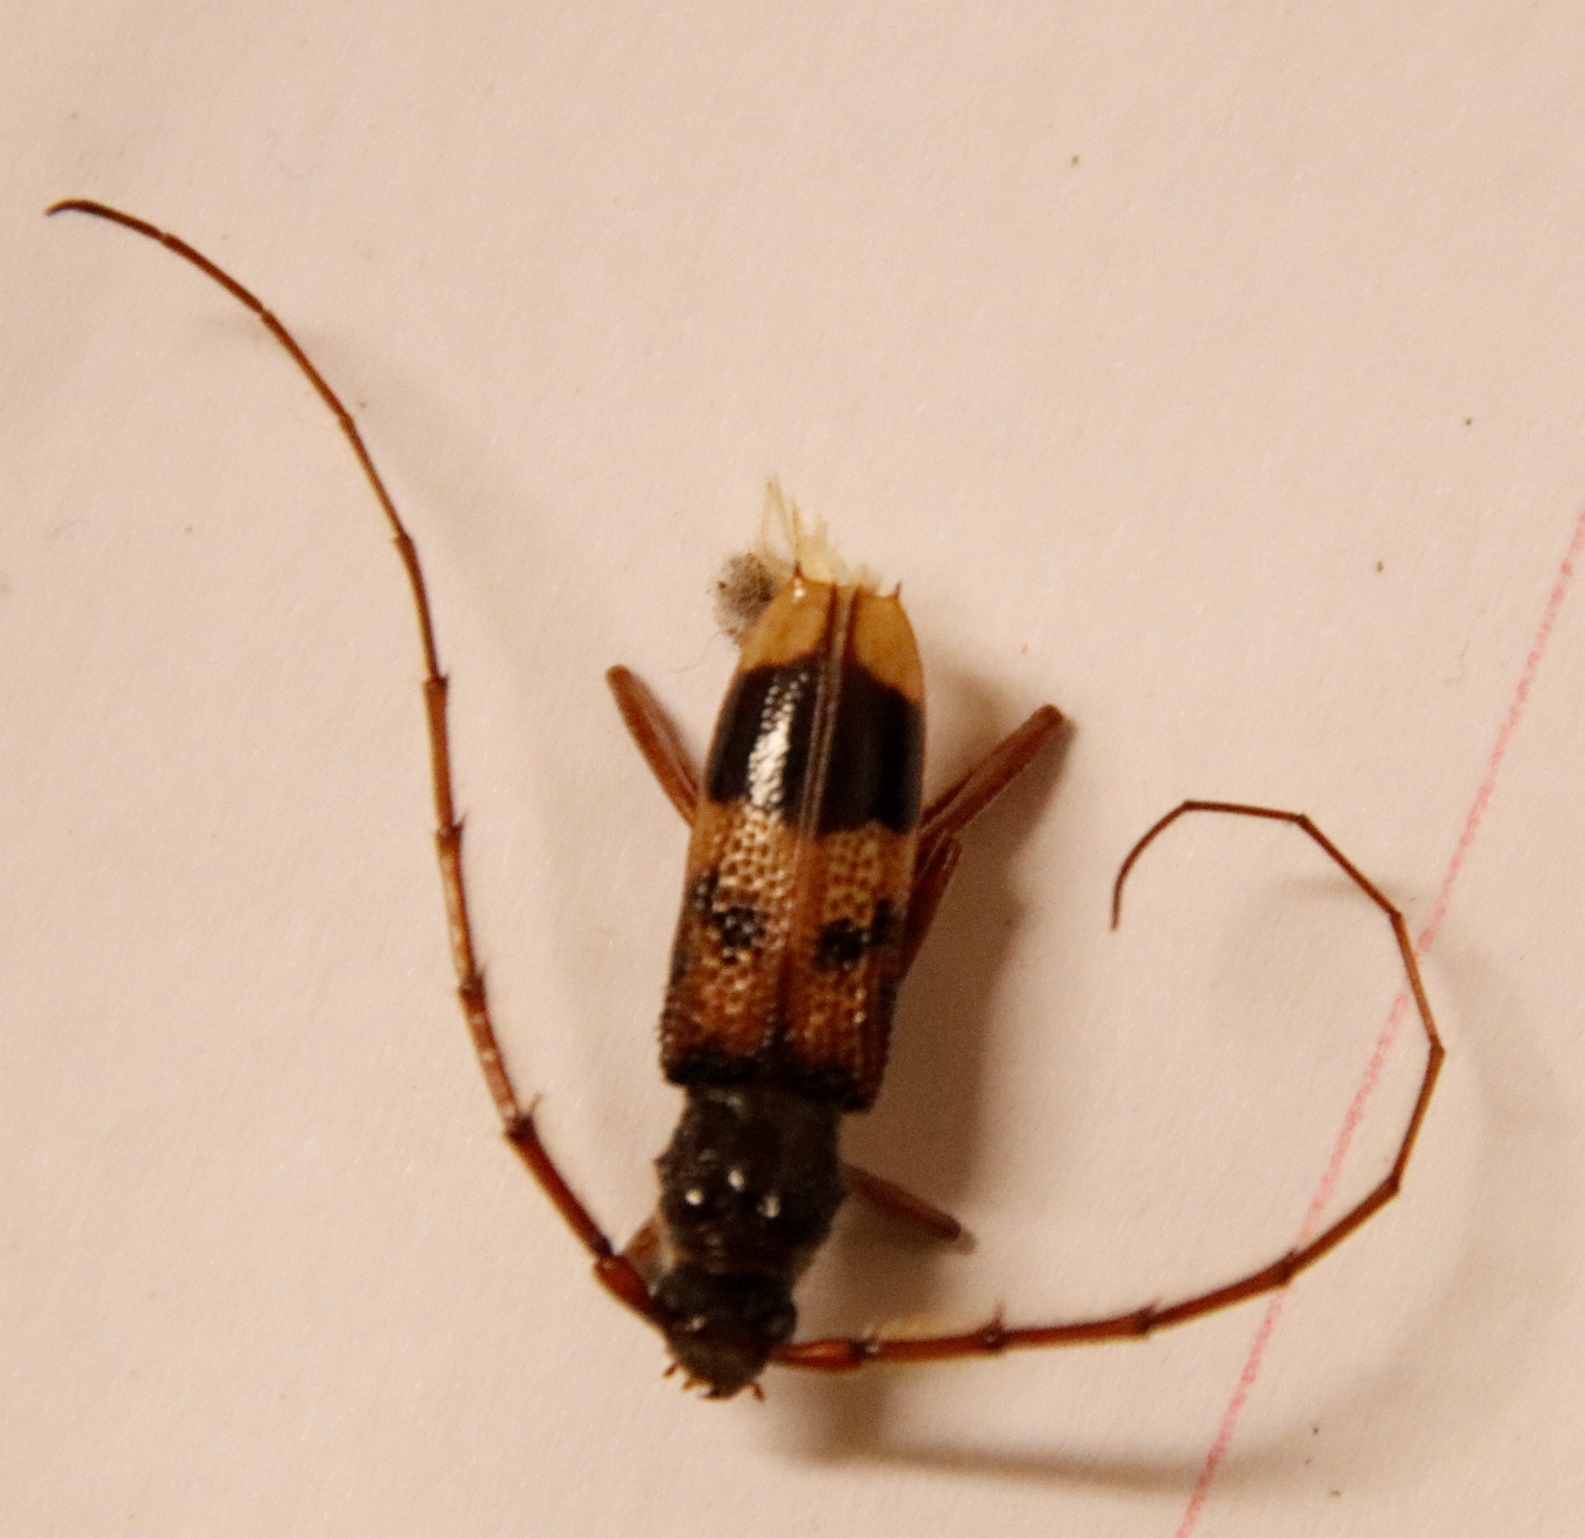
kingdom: Animalia
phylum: Arthropoda
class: Insecta
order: Coleoptera
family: Cerambycidae
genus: Phoracantha
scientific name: Phoracantha recurva
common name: Eucalyptus longhorned borer
